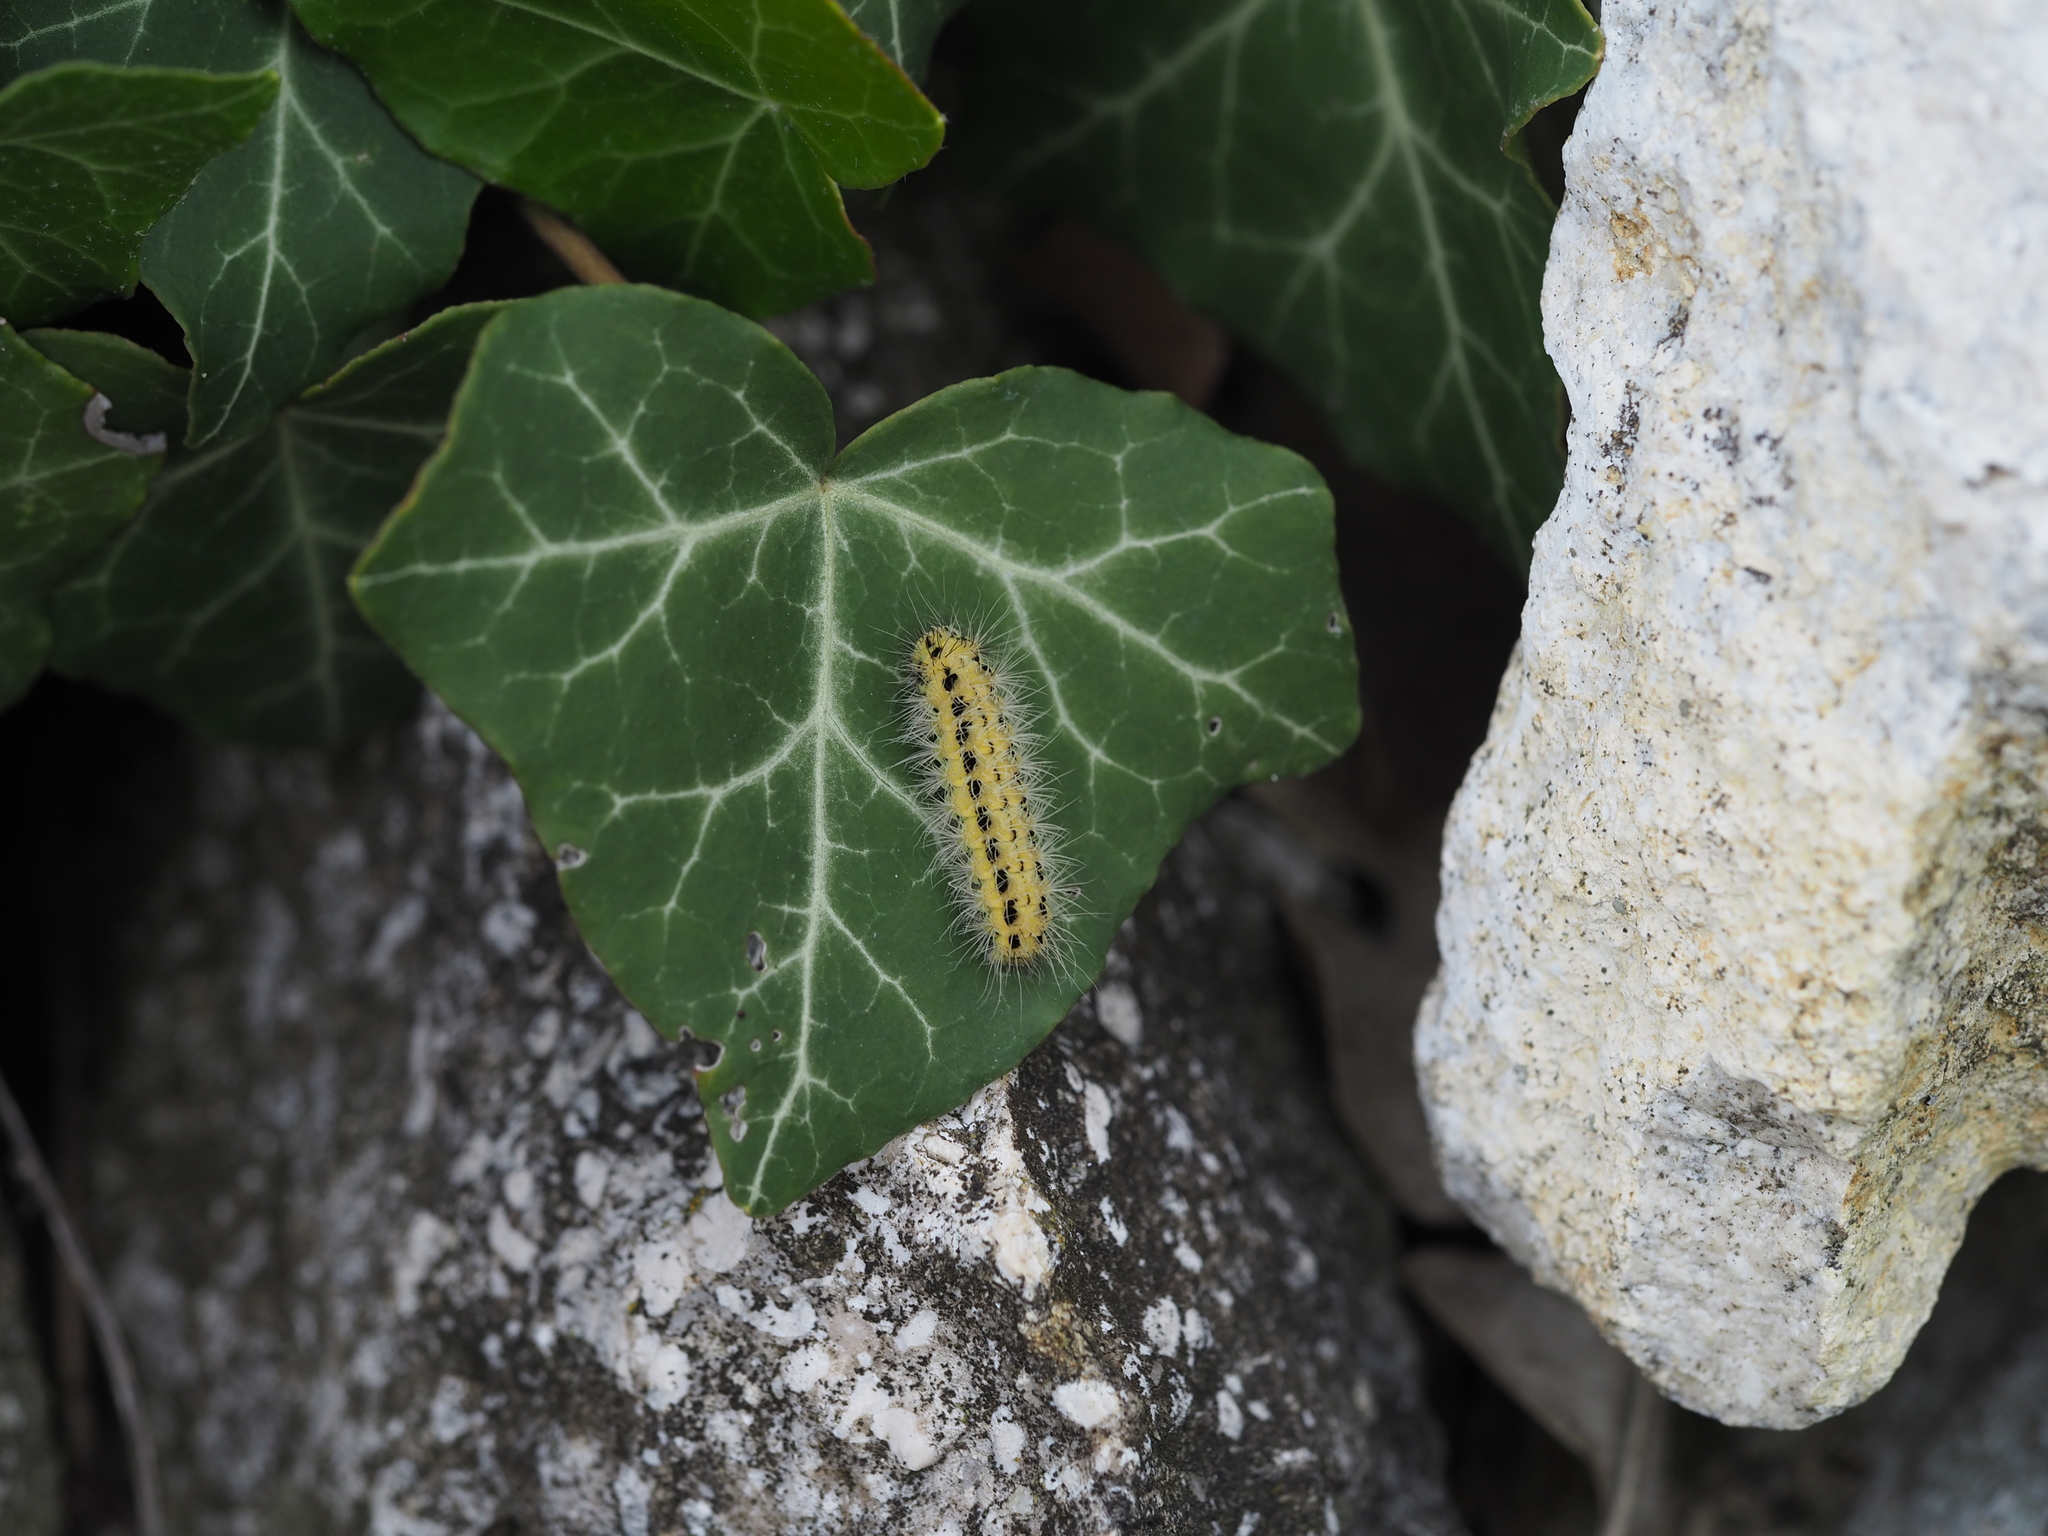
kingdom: Plantae
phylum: Tracheophyta
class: Magnoliopsida
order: Apiales
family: Araliaceae
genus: Hedera
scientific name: Hedera helix
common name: Ivy
